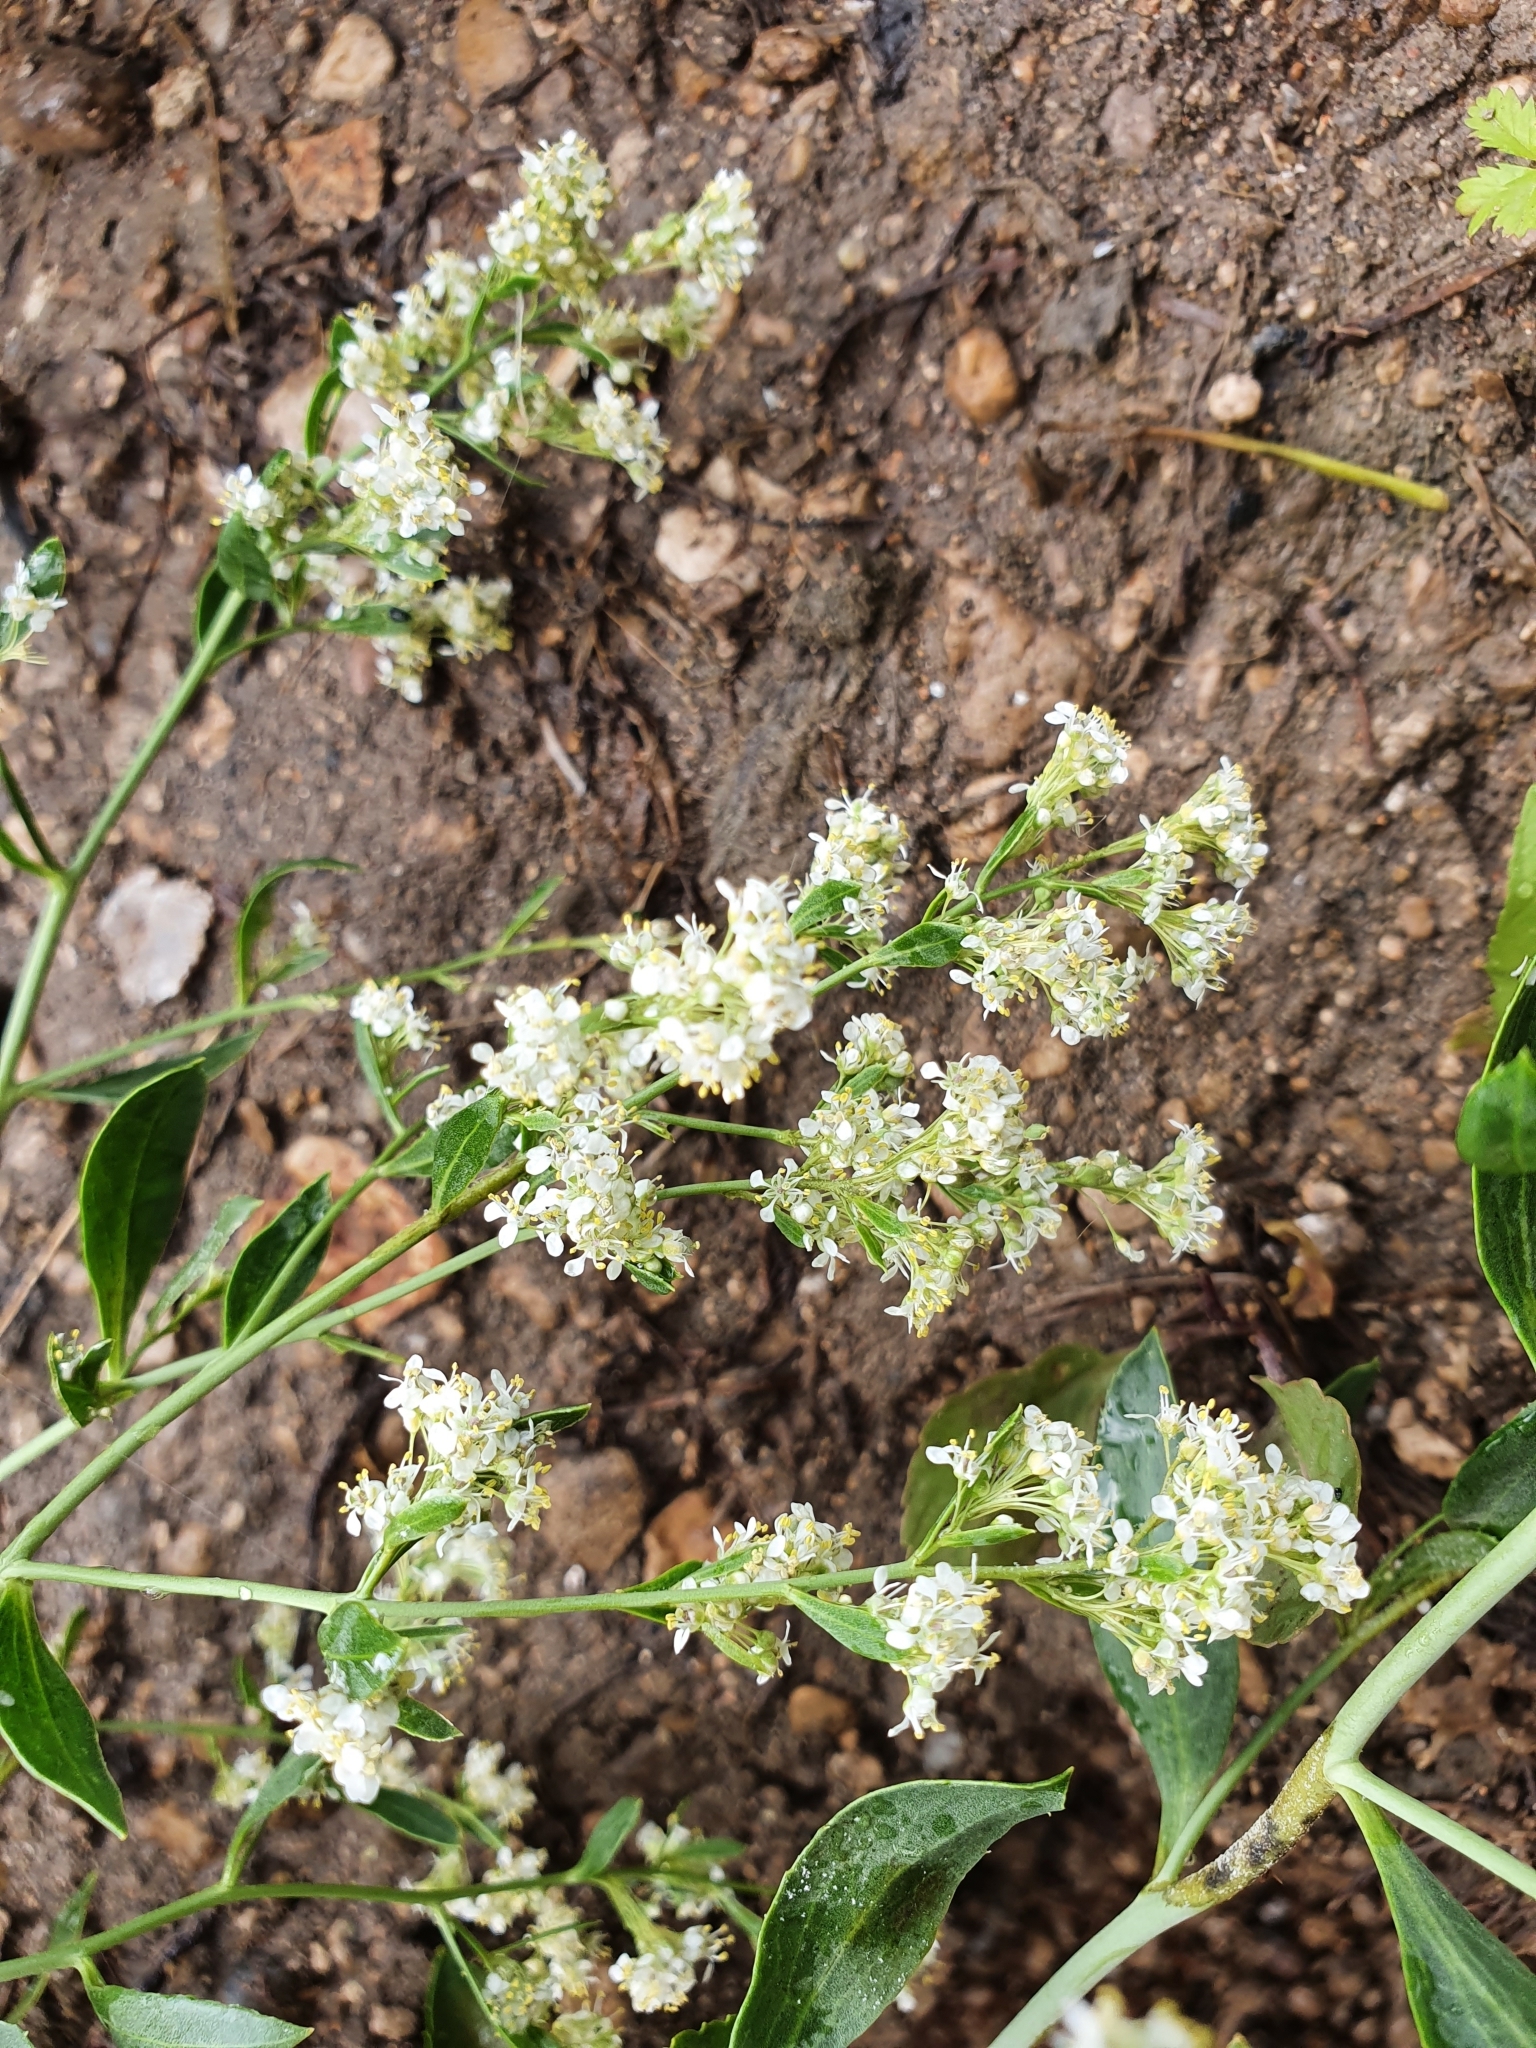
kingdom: Plantae
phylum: Tracheophyta
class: Magnoliopsida
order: Brassicales
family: Brassicaceae
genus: Lepidium
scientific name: Lepidium latifolium
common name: Dittander
